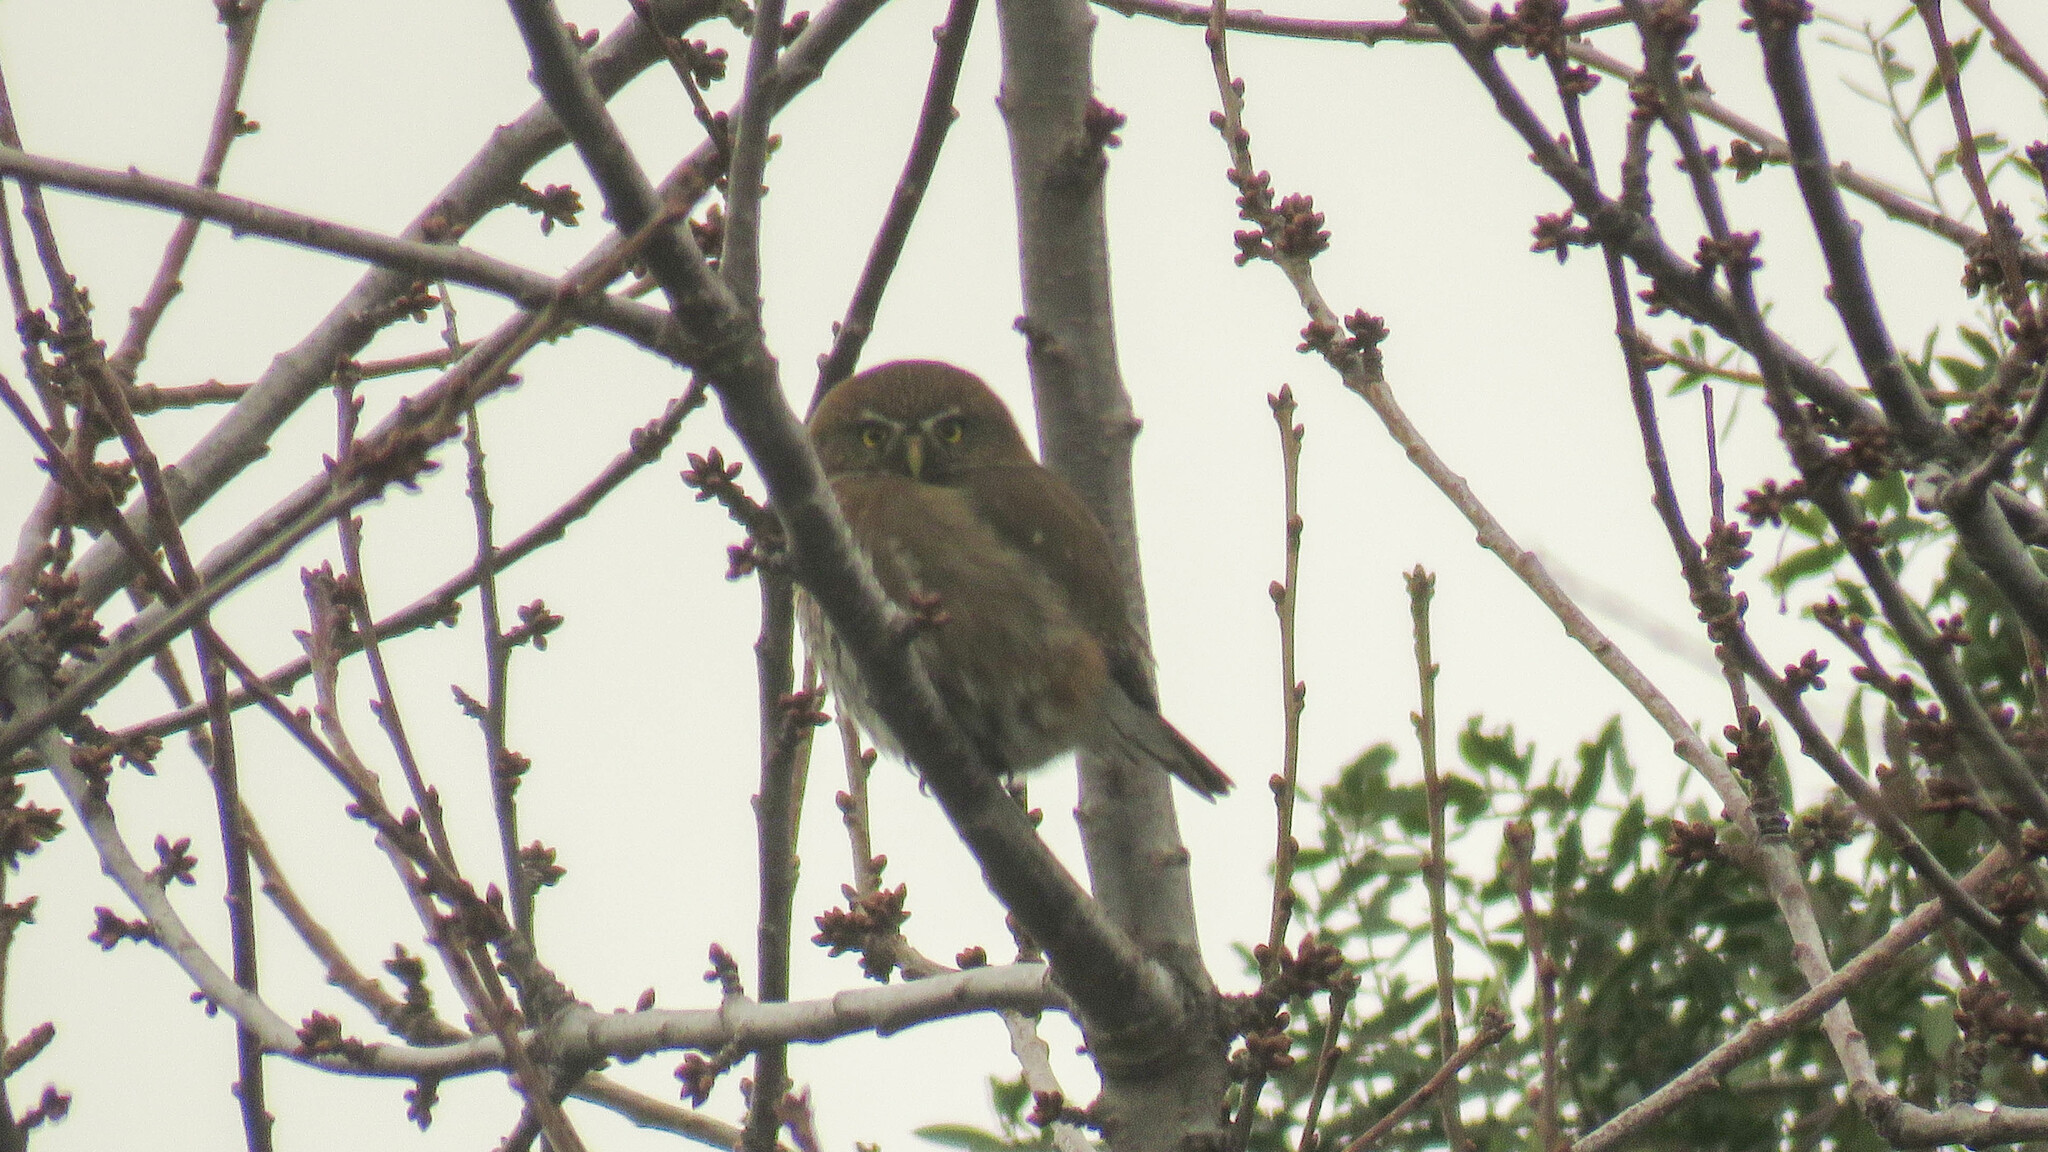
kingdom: Animalia
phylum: Chordata
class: Aves
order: Strigiformes
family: Strigidae
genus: Glaucidium
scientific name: Glaucidium nana
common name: Austral pygmy-owl
